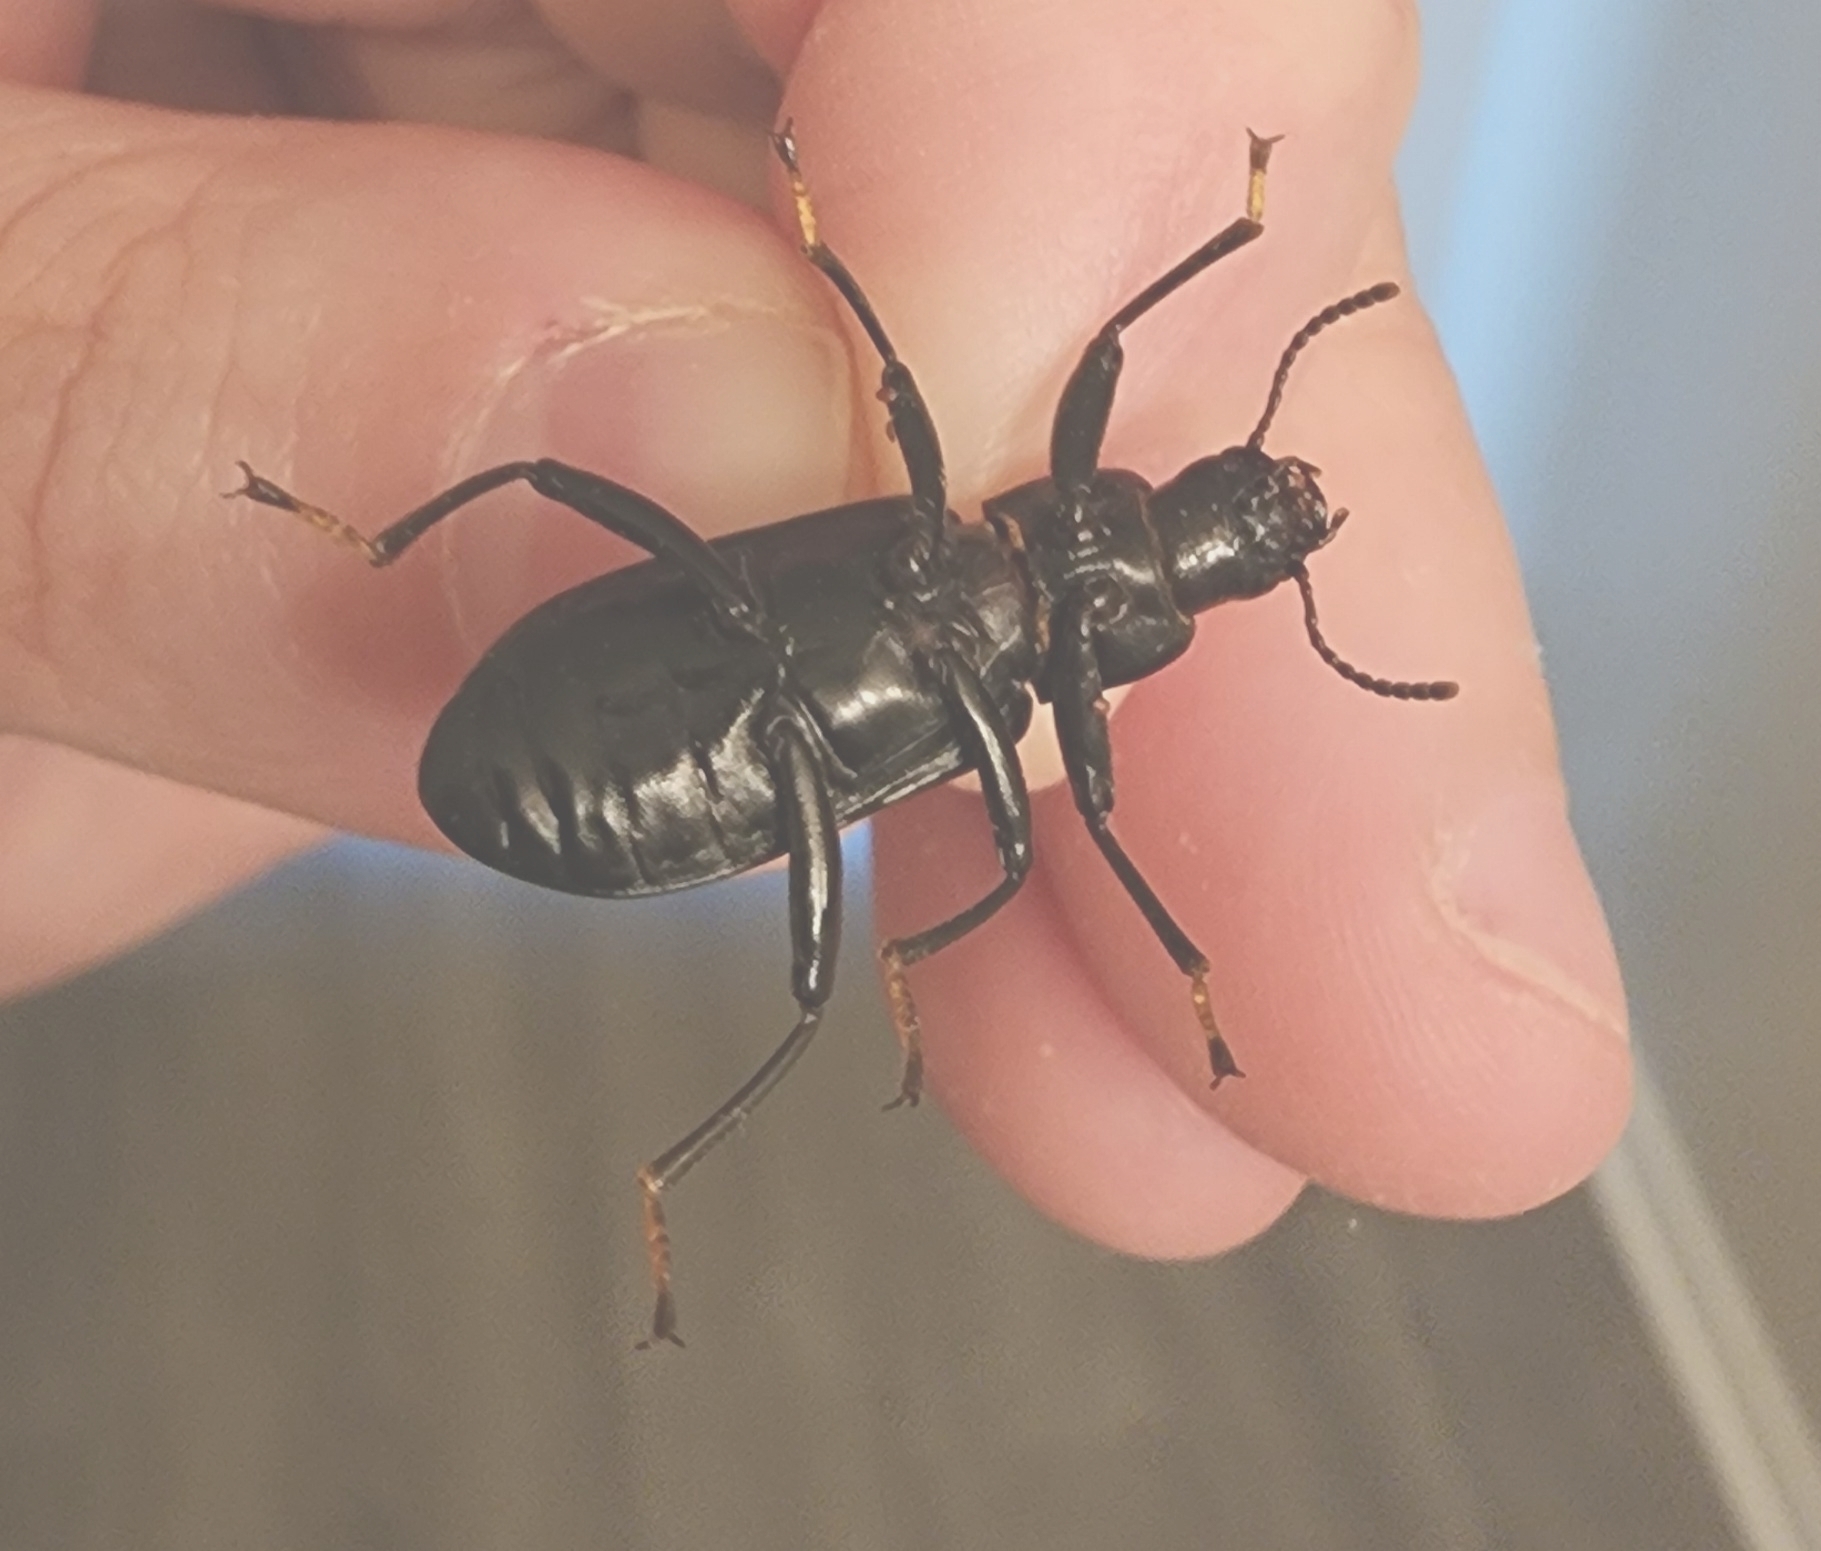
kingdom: Animalia
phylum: Arthropoda
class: Insecta
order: Coleoptera
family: Tenebrionidae
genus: Alobates
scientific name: Alobates pensylvanicus
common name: False mealworm beetle
